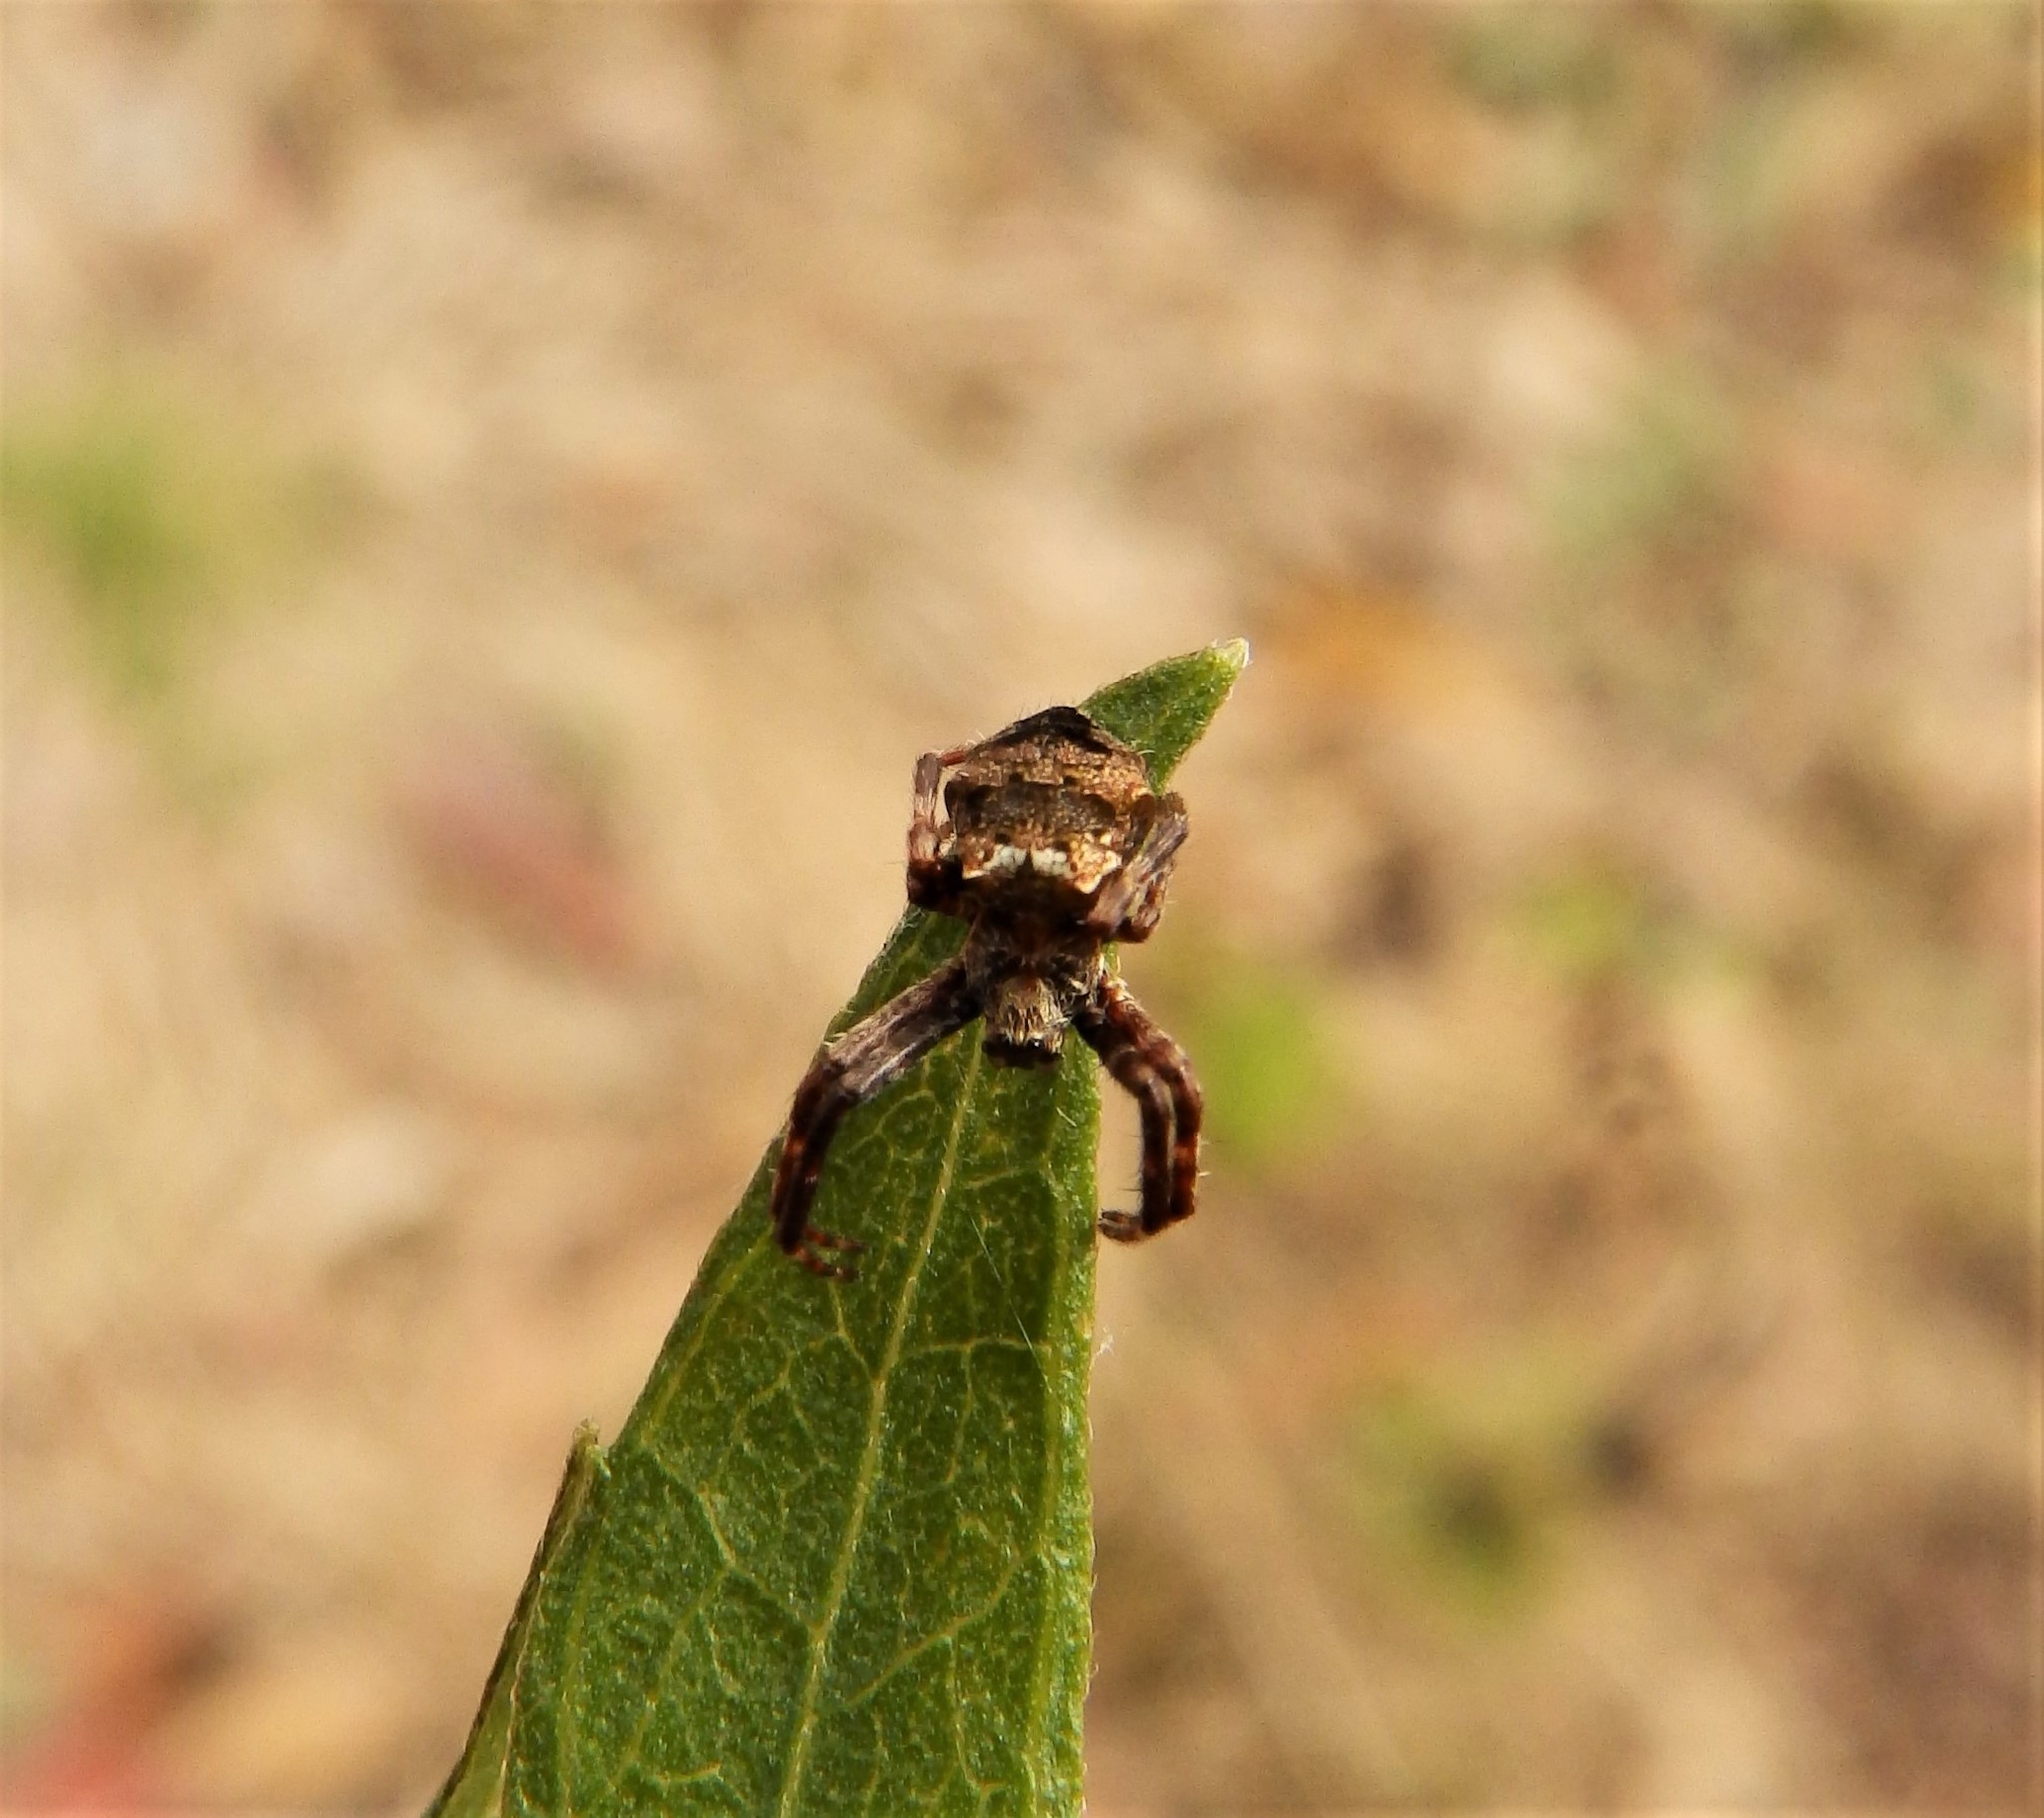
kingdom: Animalia
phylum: Arthropoda
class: Arachnida
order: Araneae
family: Araneidae
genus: Gea
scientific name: Gea heptagon
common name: Orb weavers
